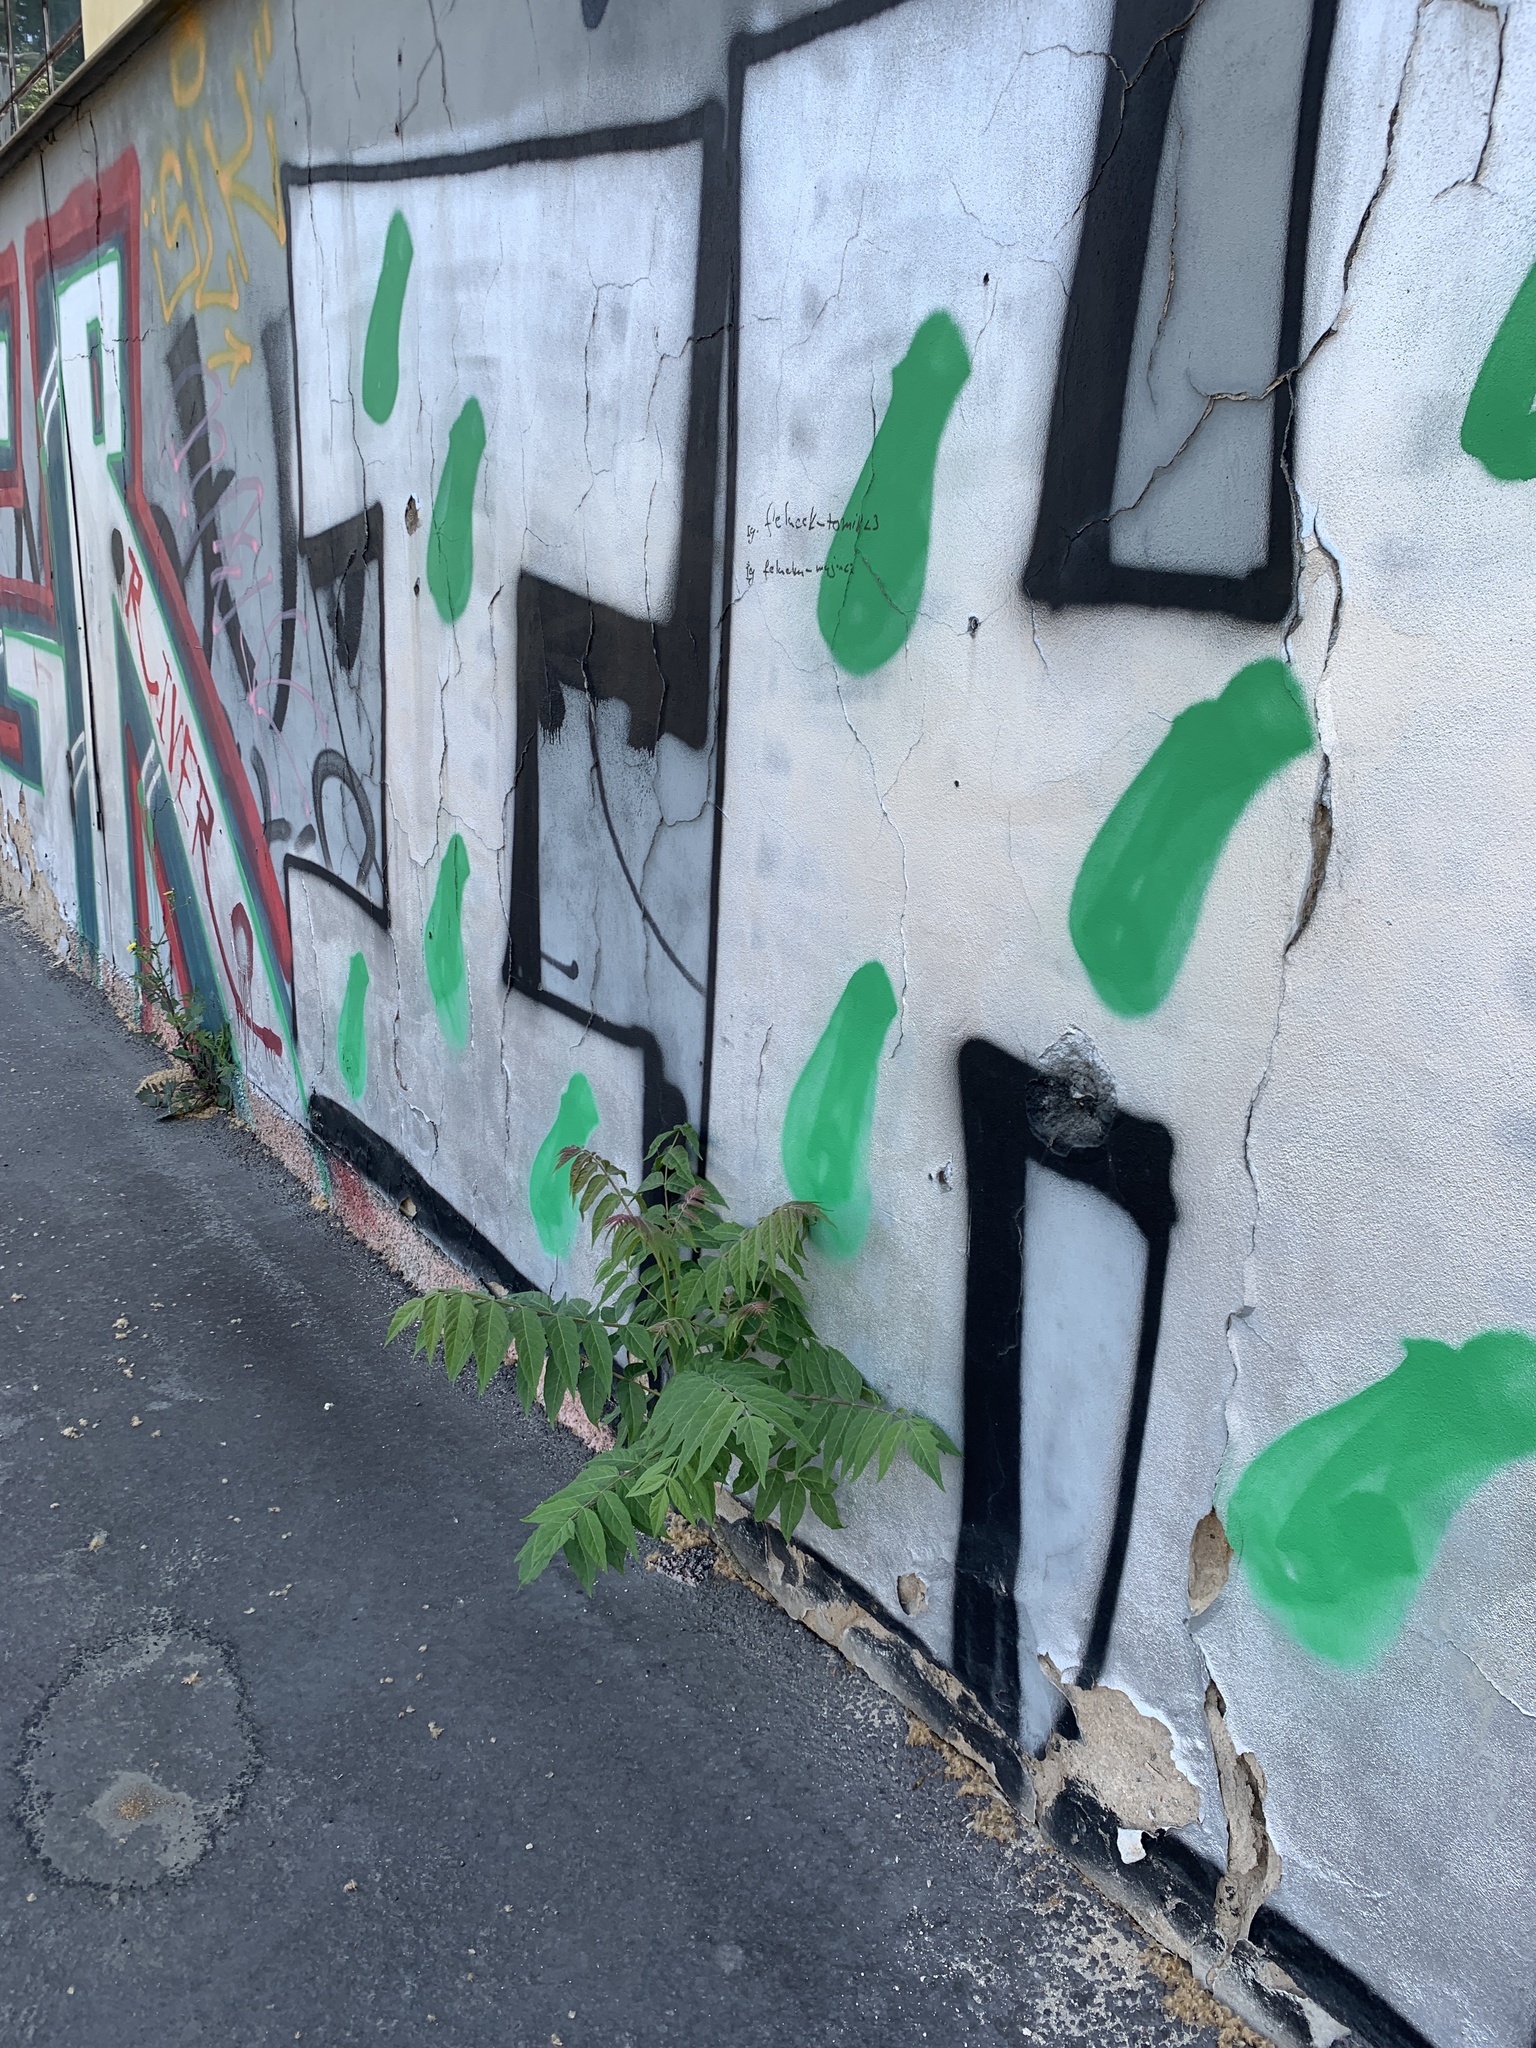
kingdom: Plantae
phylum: Tracheophyta
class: Magnoliopsida
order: Sapindales
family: Simaroubaceae
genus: Ailanthus
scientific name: Ailanthus altissima
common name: Tree-of-heaven
